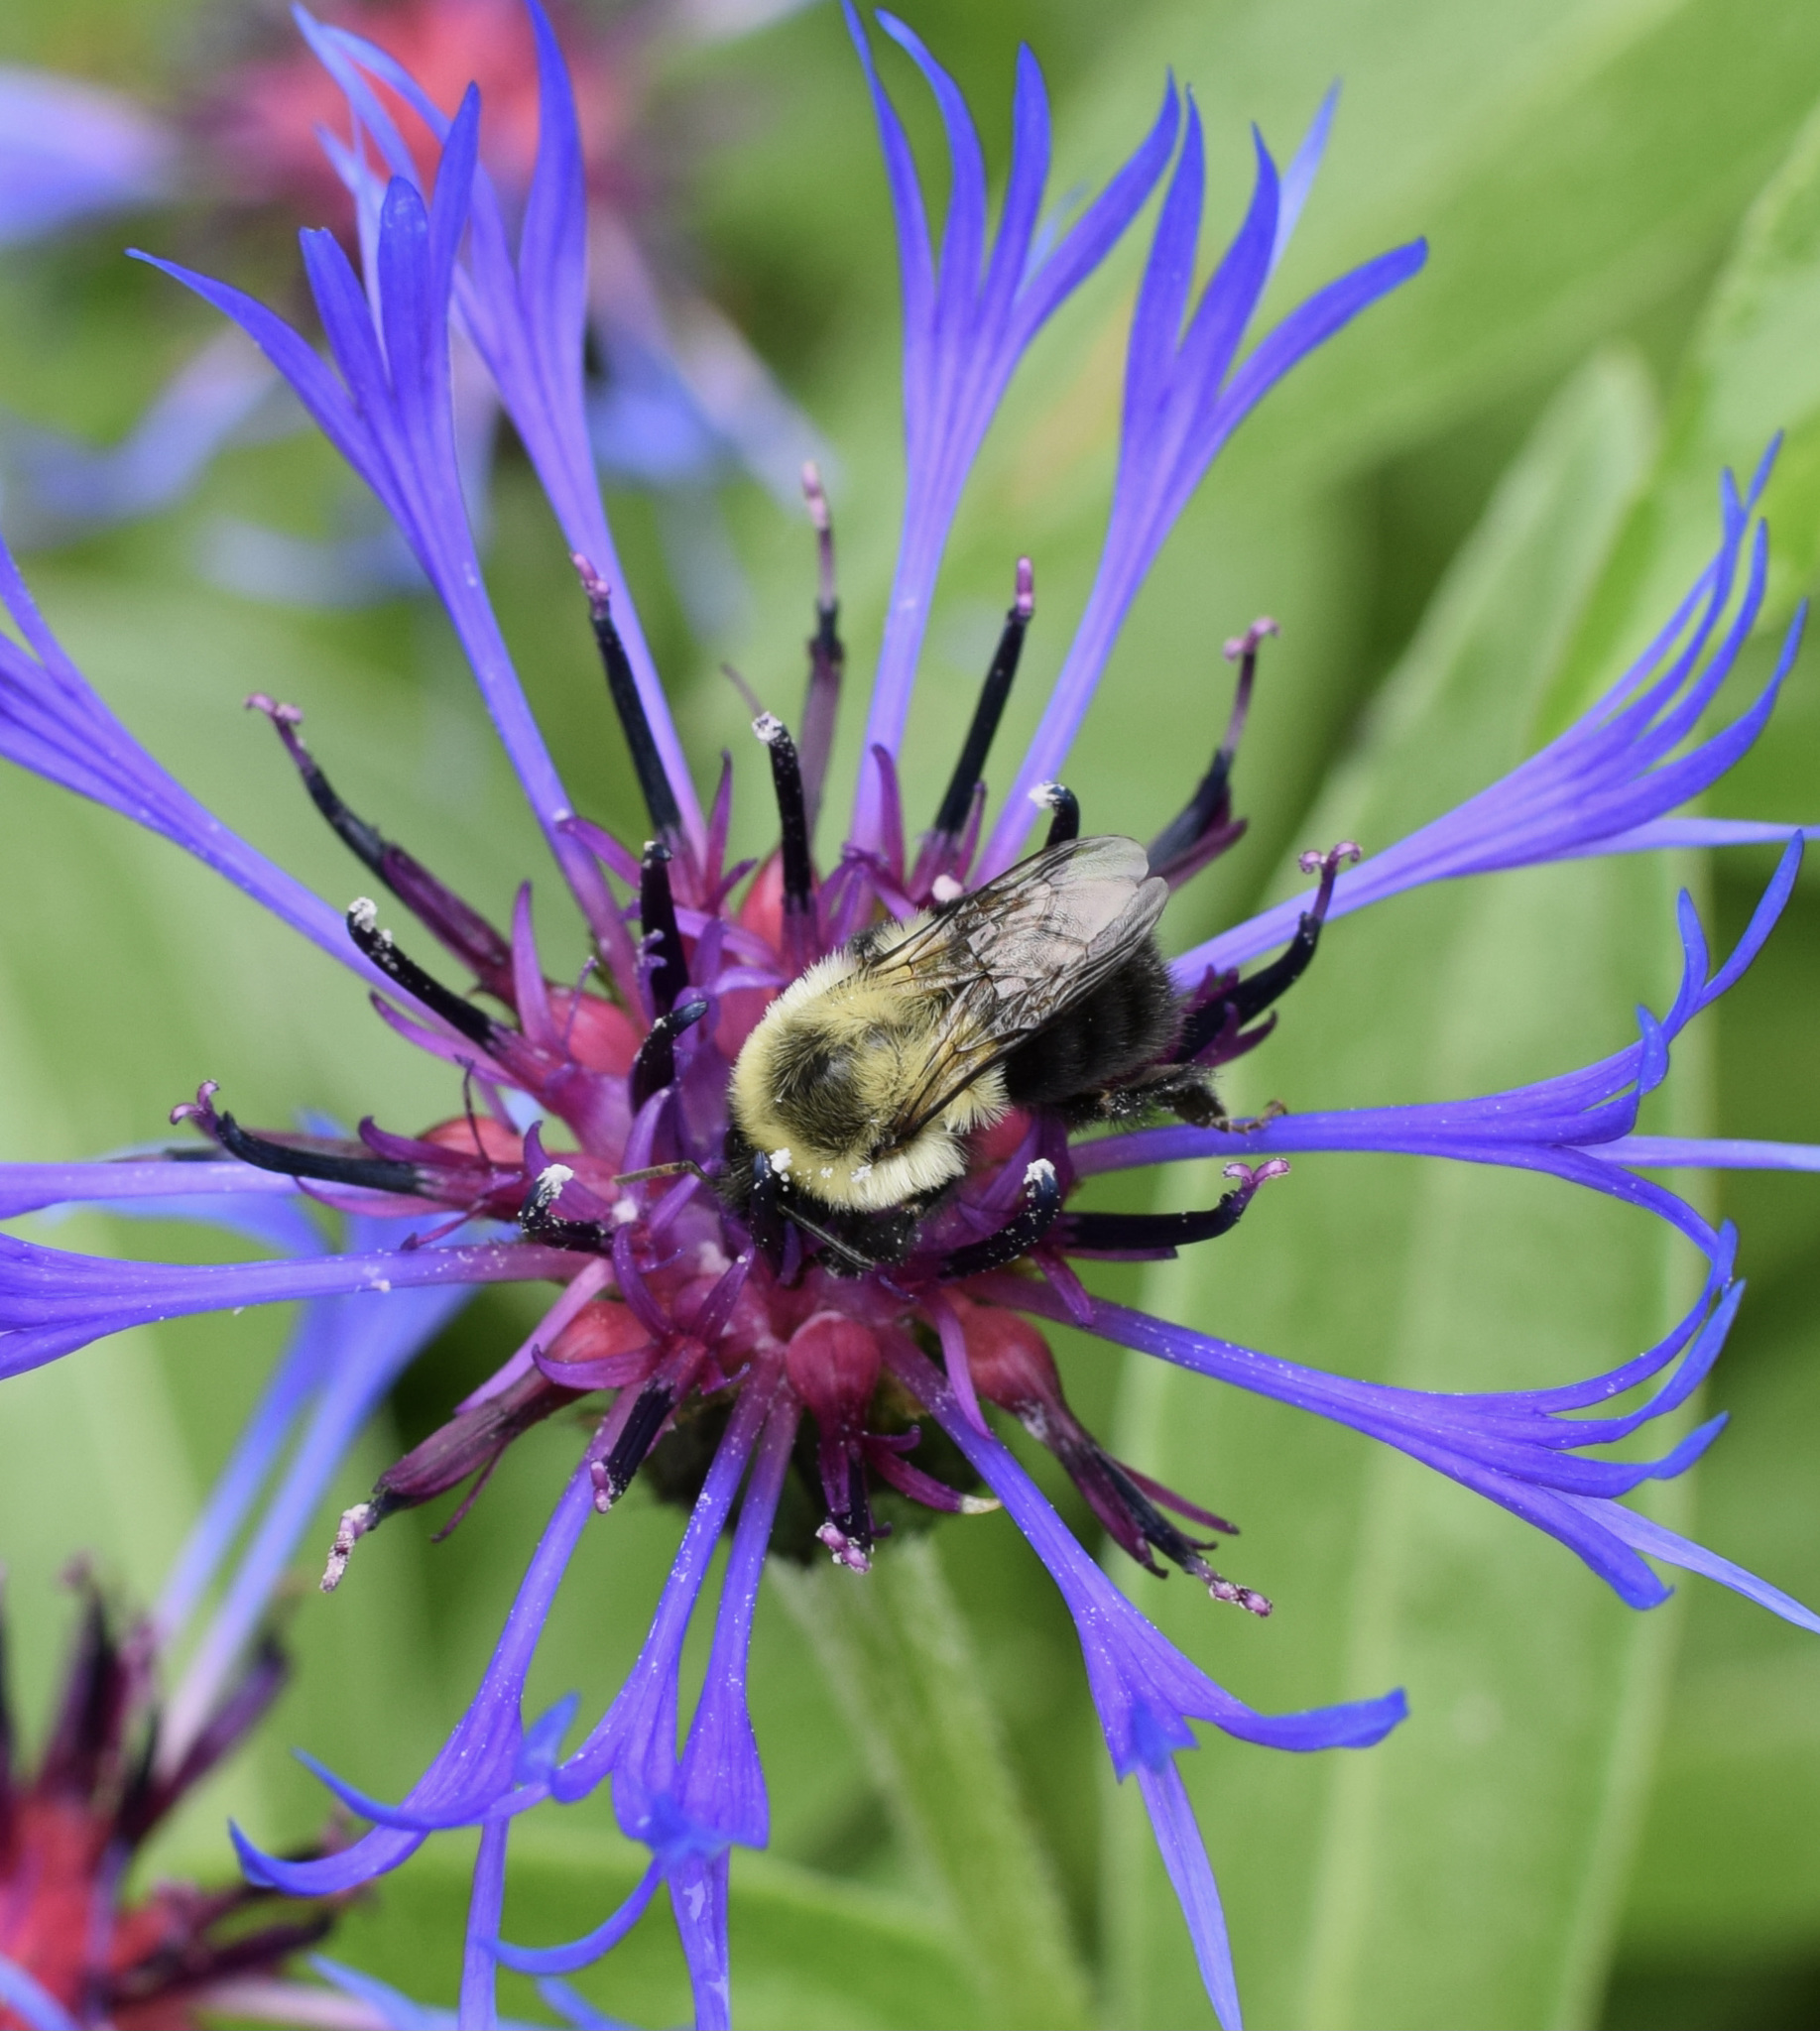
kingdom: Animalia
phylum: Arthropoda
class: Insecta
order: Hymenoptera
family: Apidae
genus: Bombus
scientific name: Bombus impatiens
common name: Common eastern bumble bee
